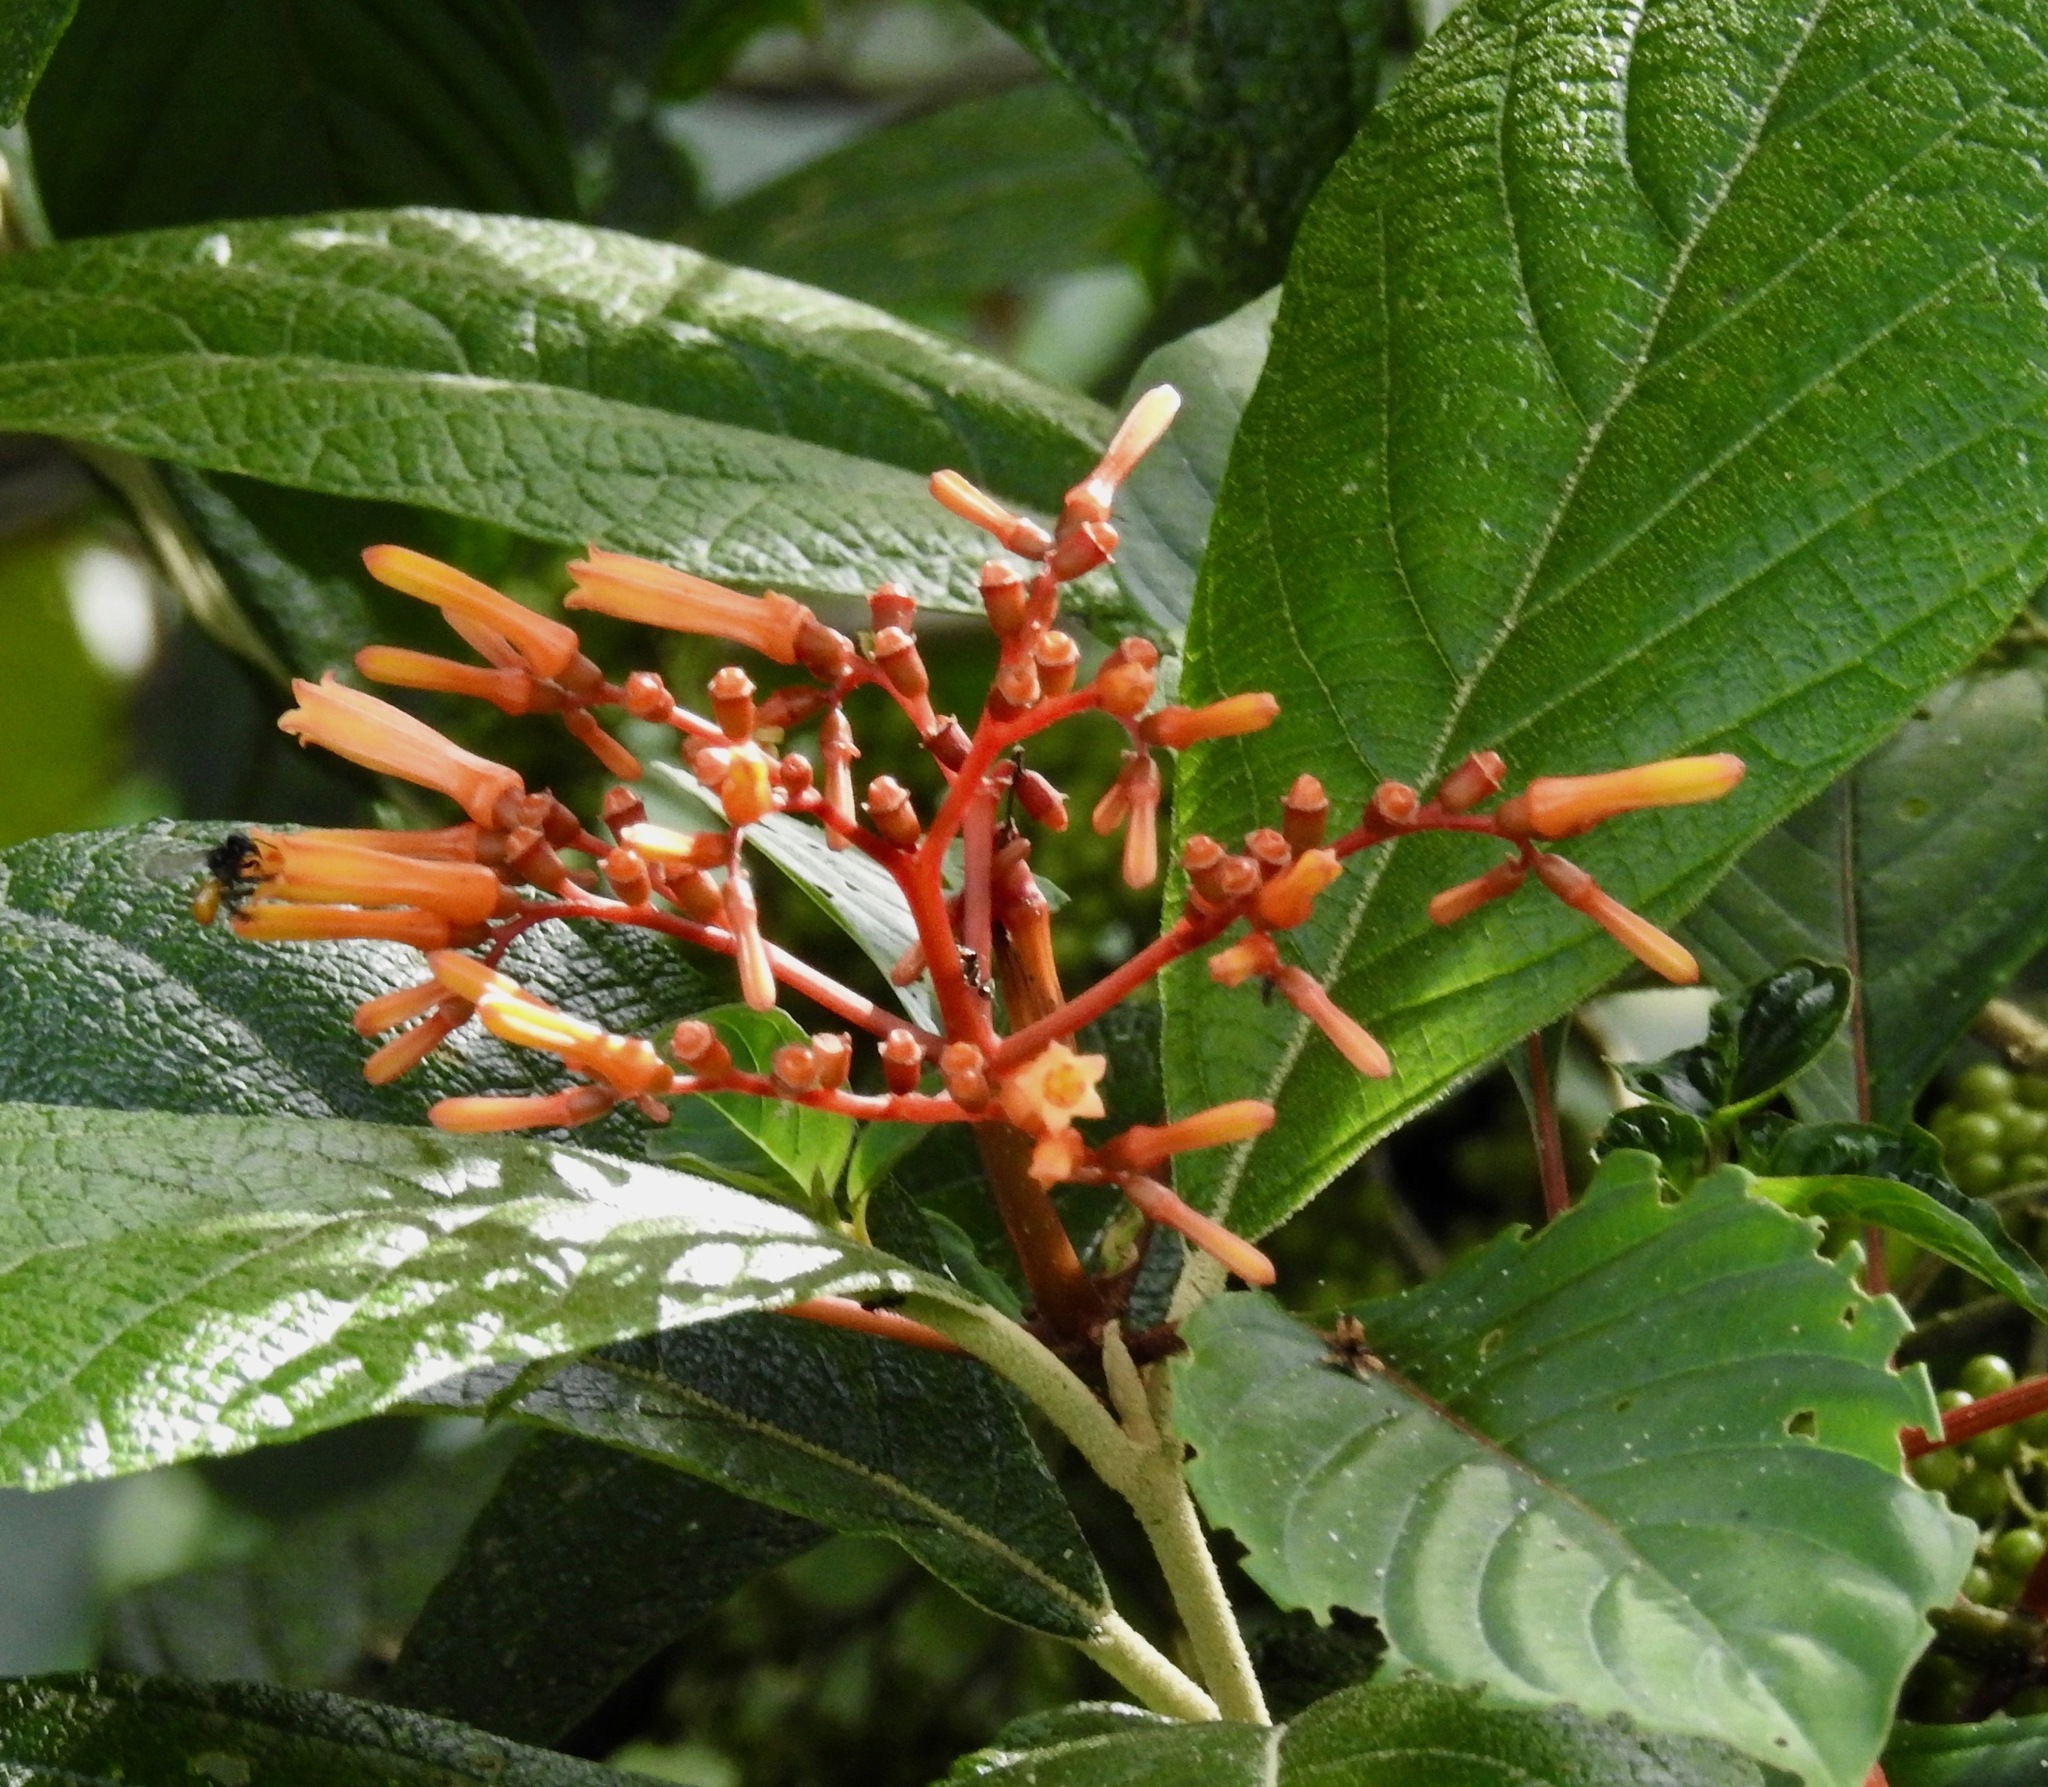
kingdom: Plantae
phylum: Tracheophyta
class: Magnoliopsida
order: Gentianales
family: Rubiaceae
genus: Hamelia
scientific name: Hamelia patens
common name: Redhead
